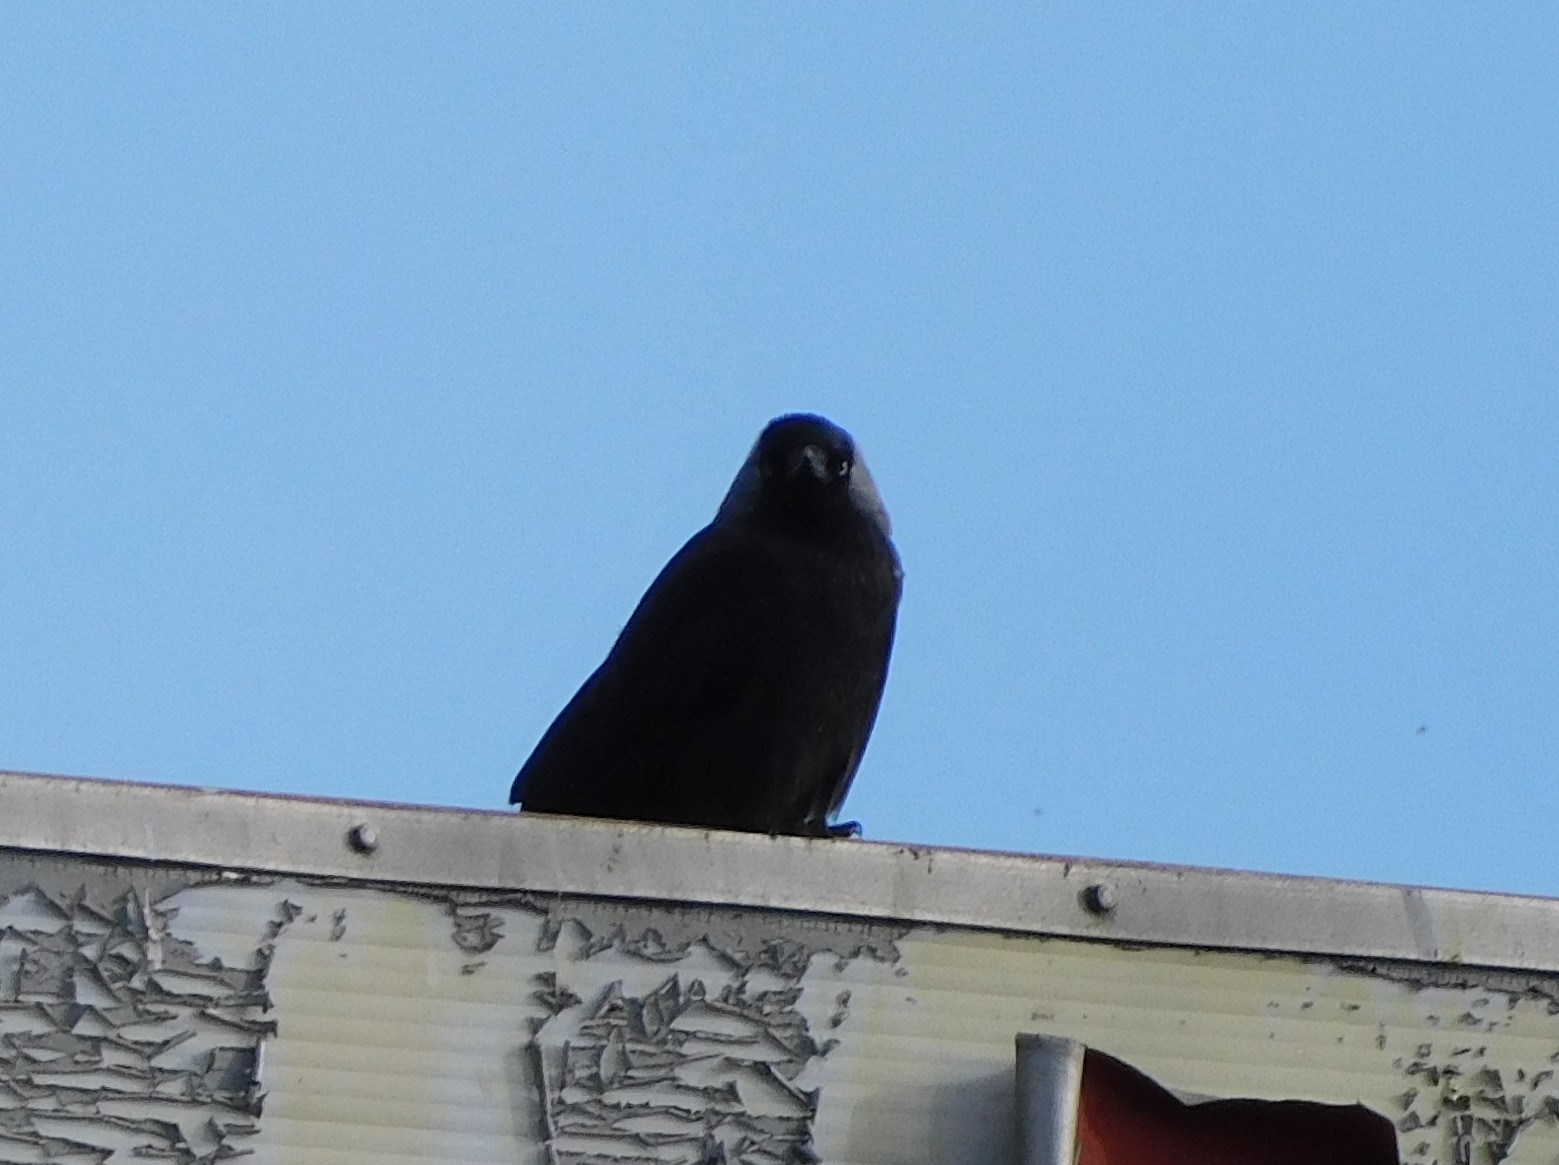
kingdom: Animalia
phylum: Chordata
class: Aves
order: Passeriformes
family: Corvidae
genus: Coloeus
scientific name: Coloeus monedula
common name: Western jackdaw
